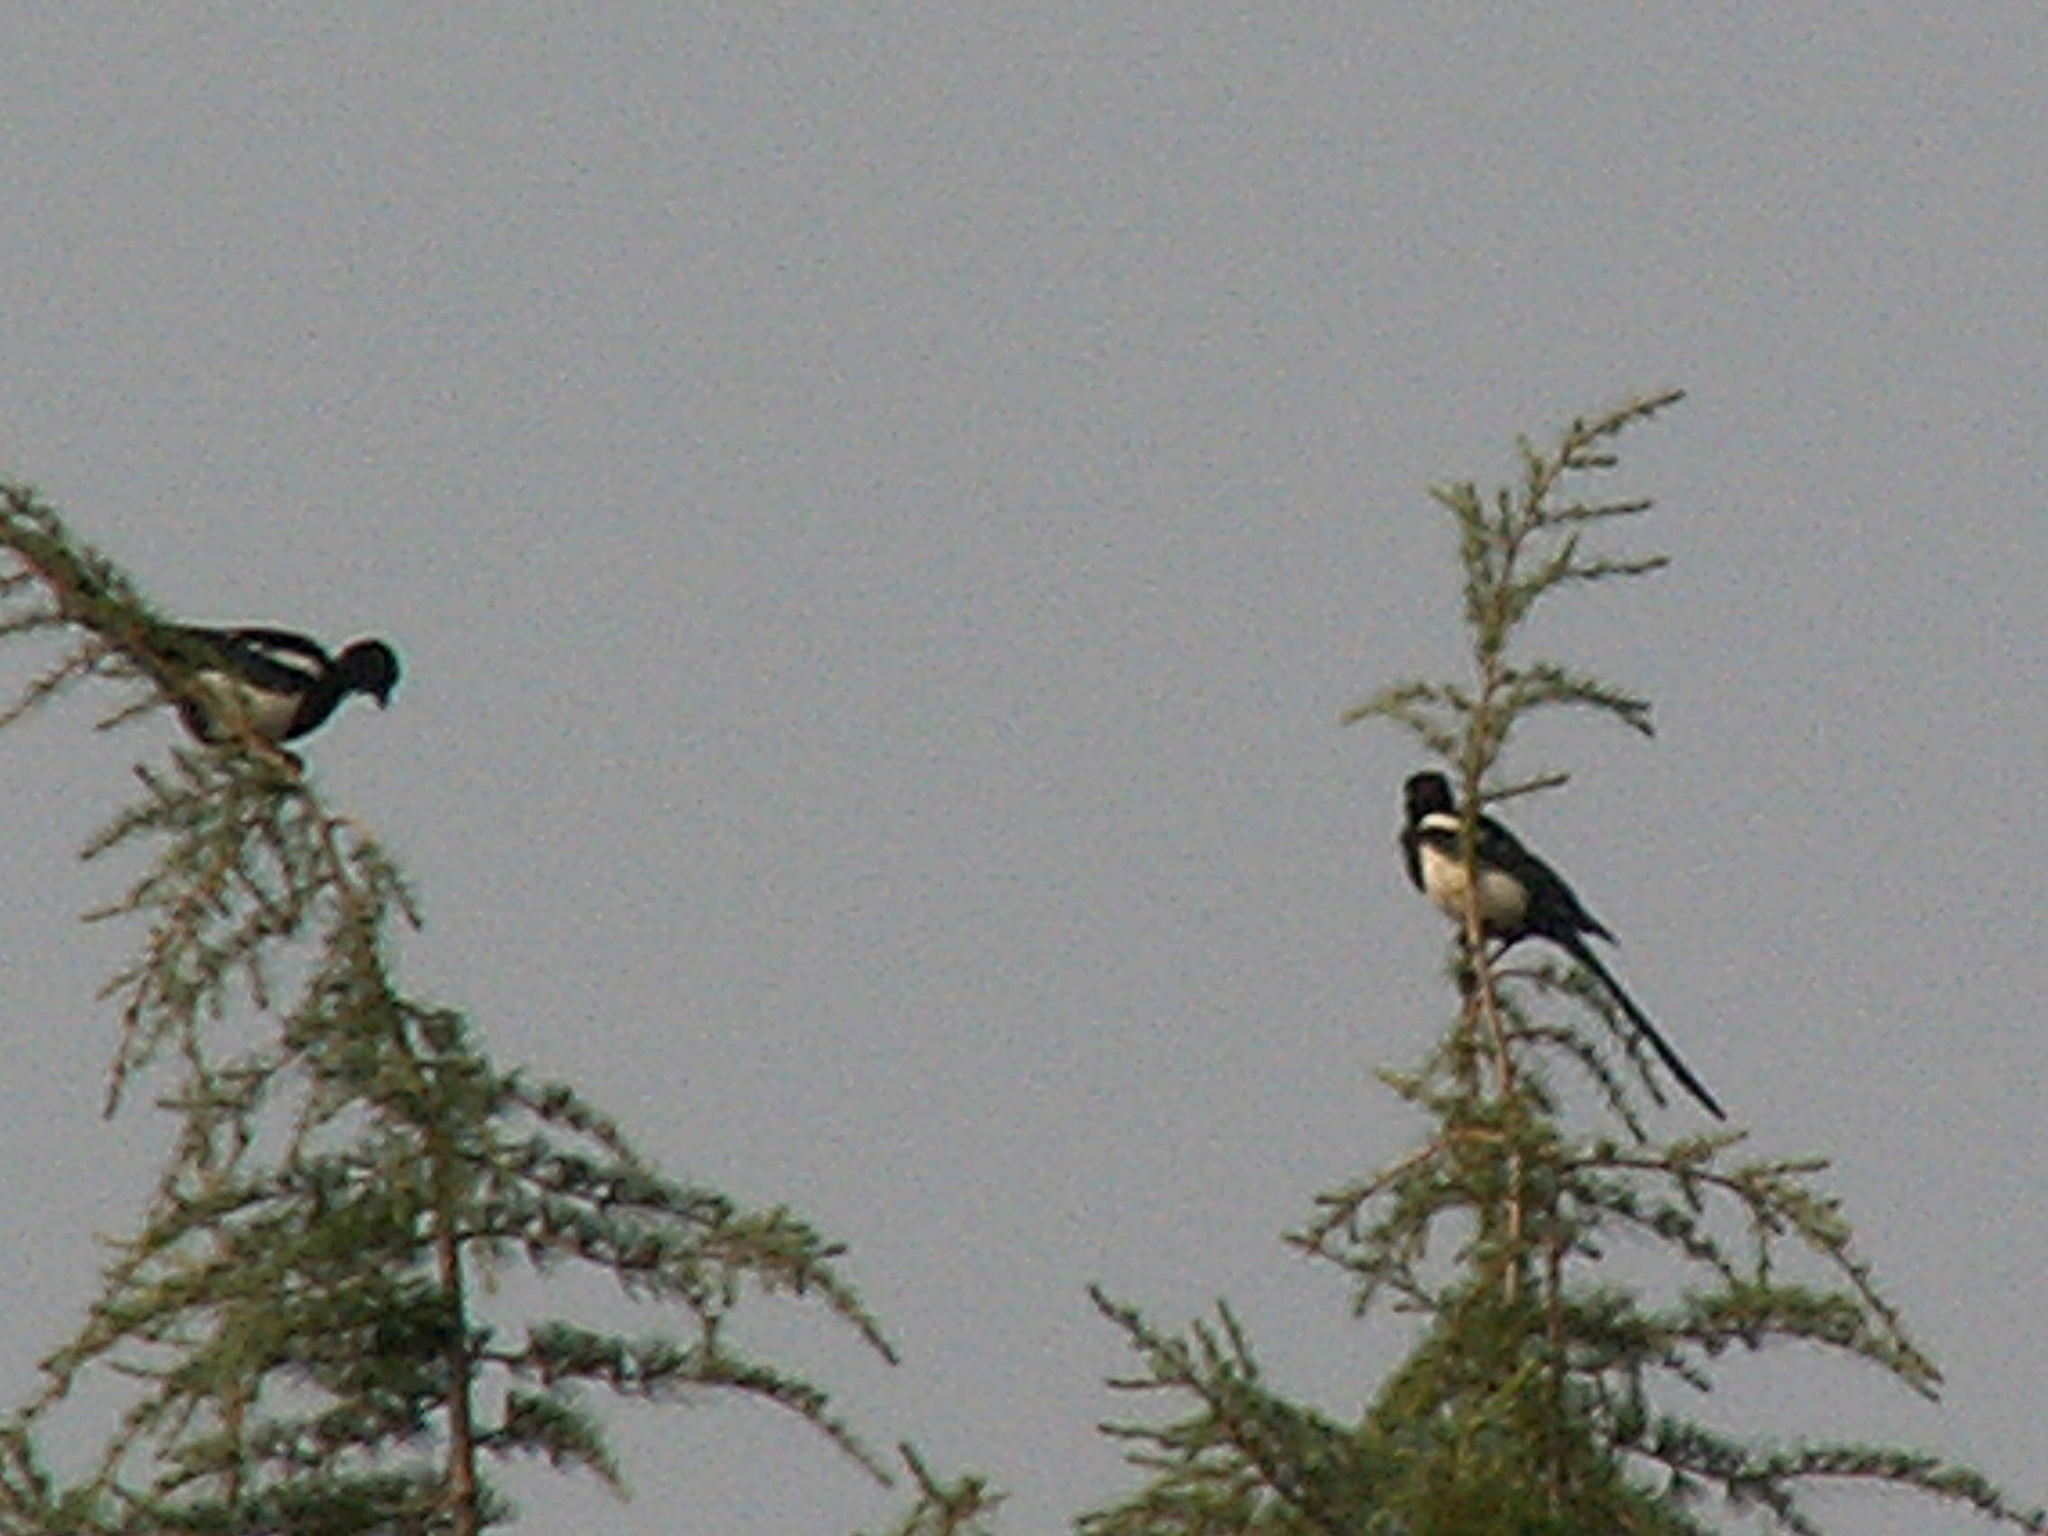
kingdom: Animalia
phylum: Chordata
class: Aves
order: Passeriformes
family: Corvidae
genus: Pica
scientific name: Pica pica
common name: Eurasian magpie
